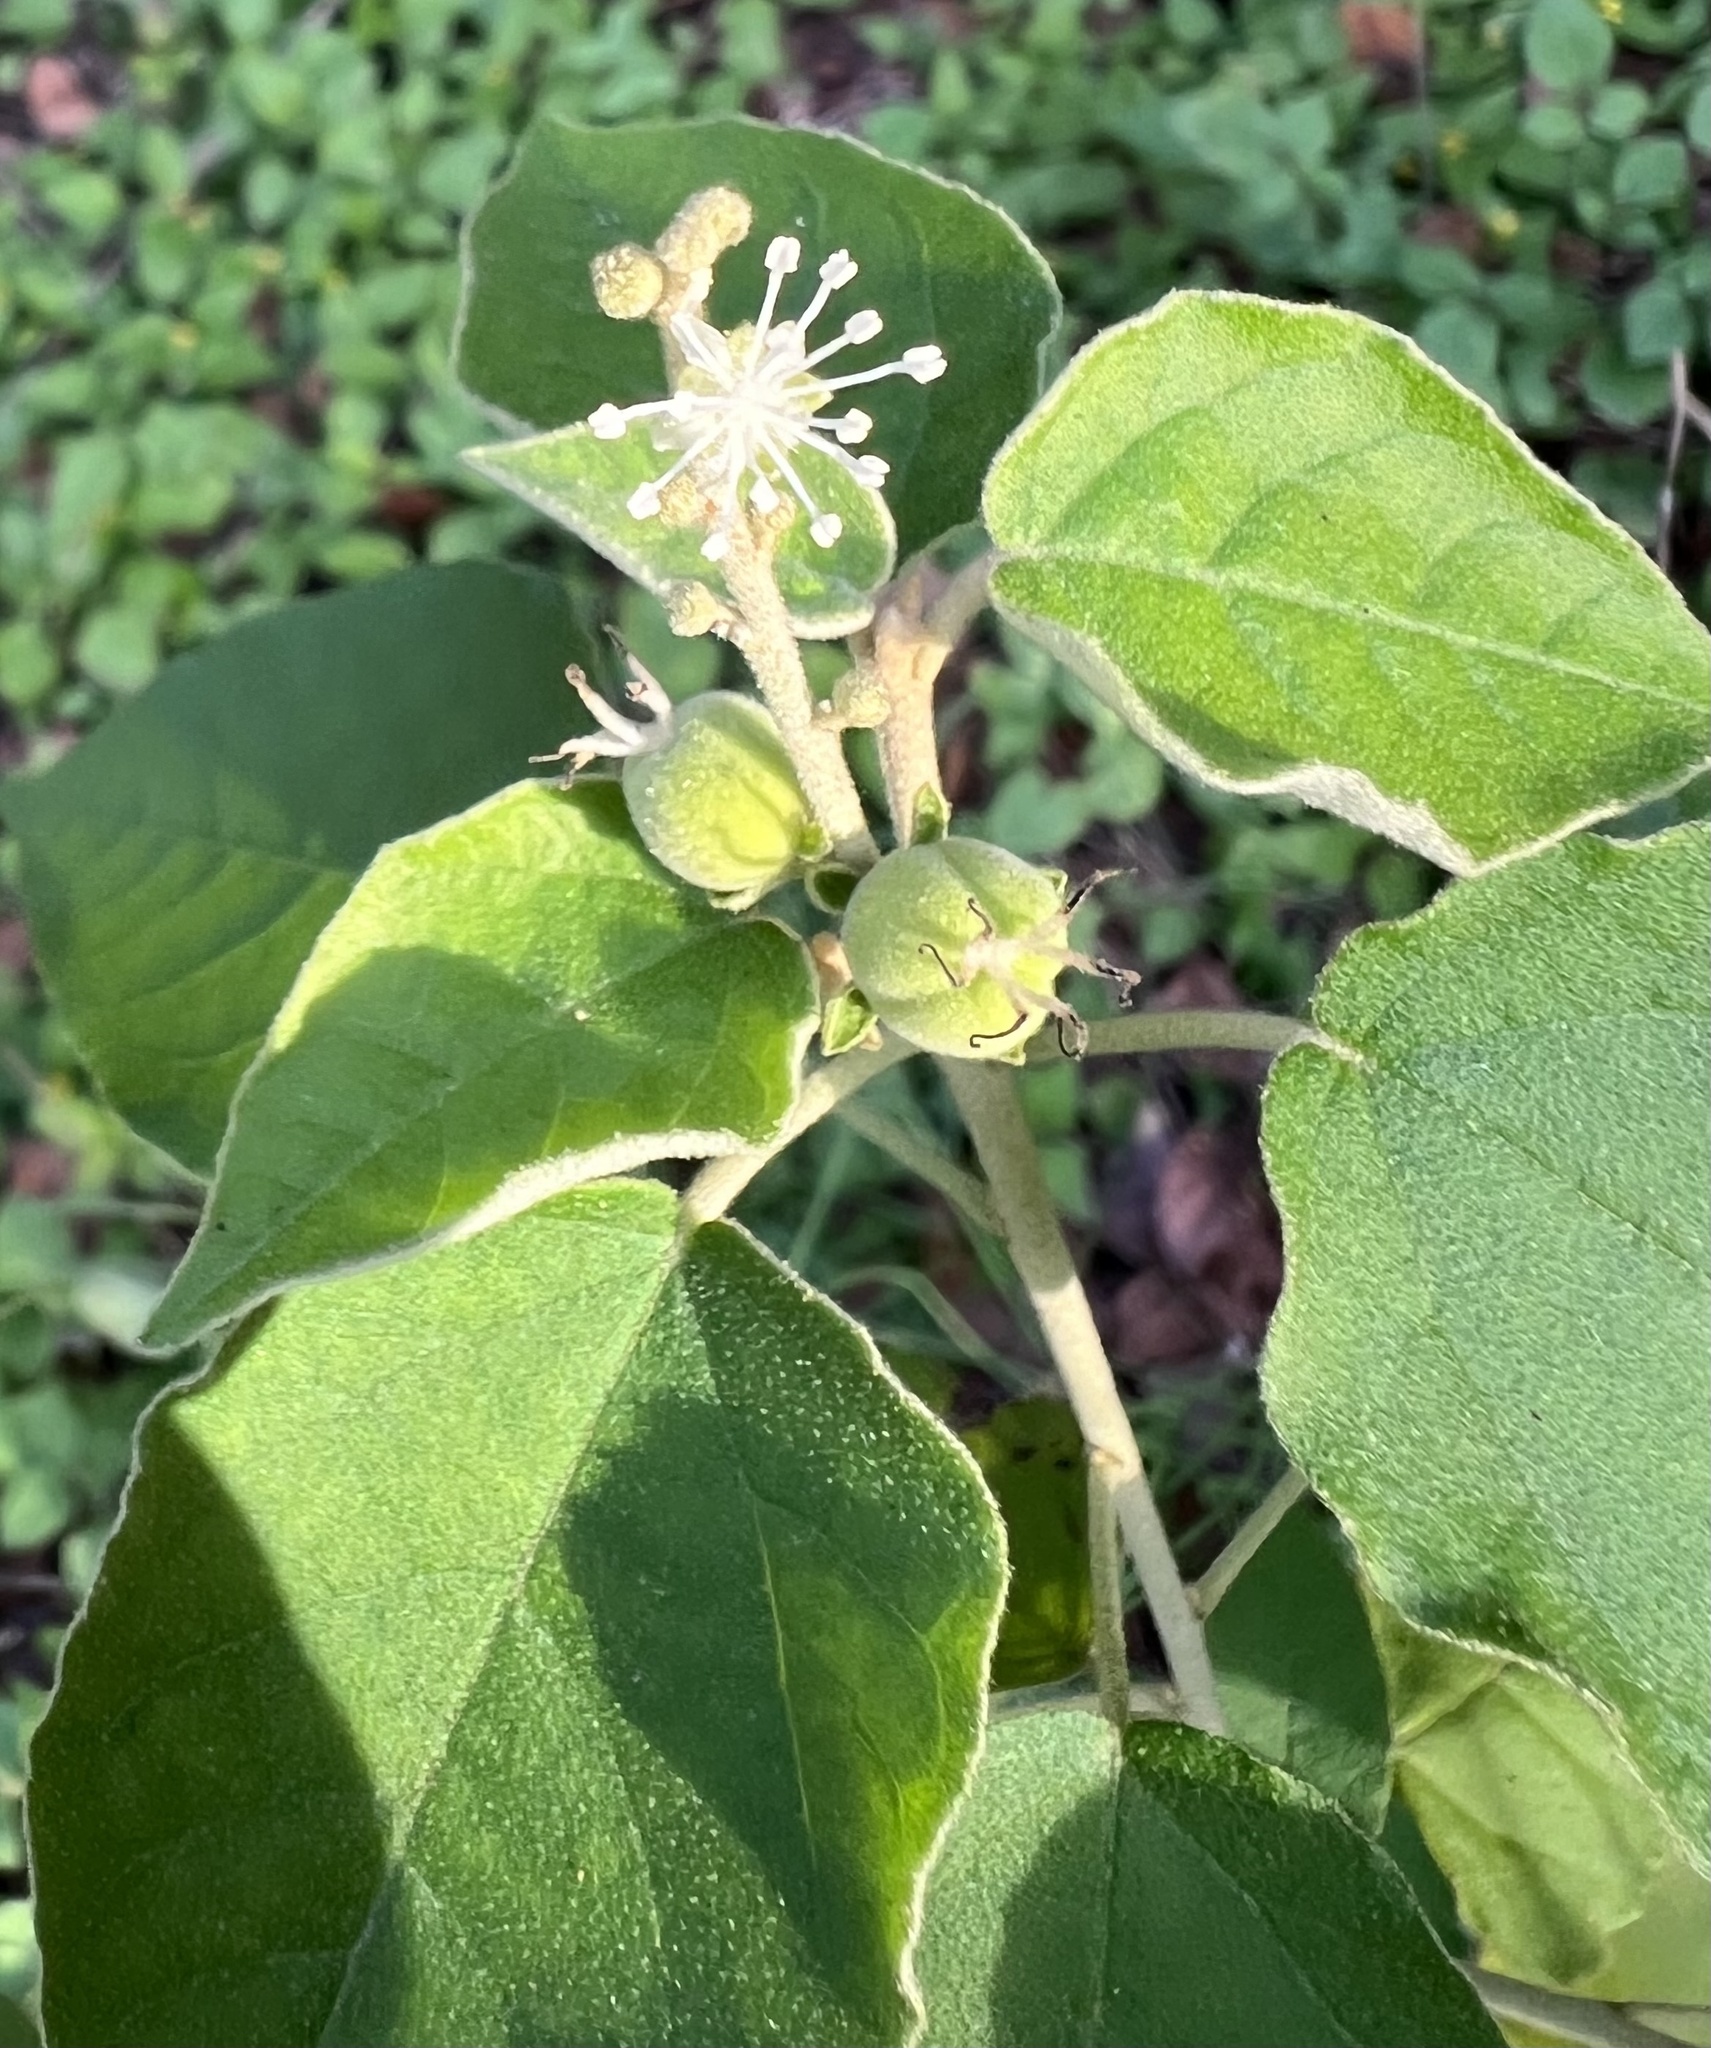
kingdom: Plantae
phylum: Tracheophyta
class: Magnoliopsida
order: Malpighiales
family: Euphorbiaceae
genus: Croton
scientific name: Croton fruticulosus
